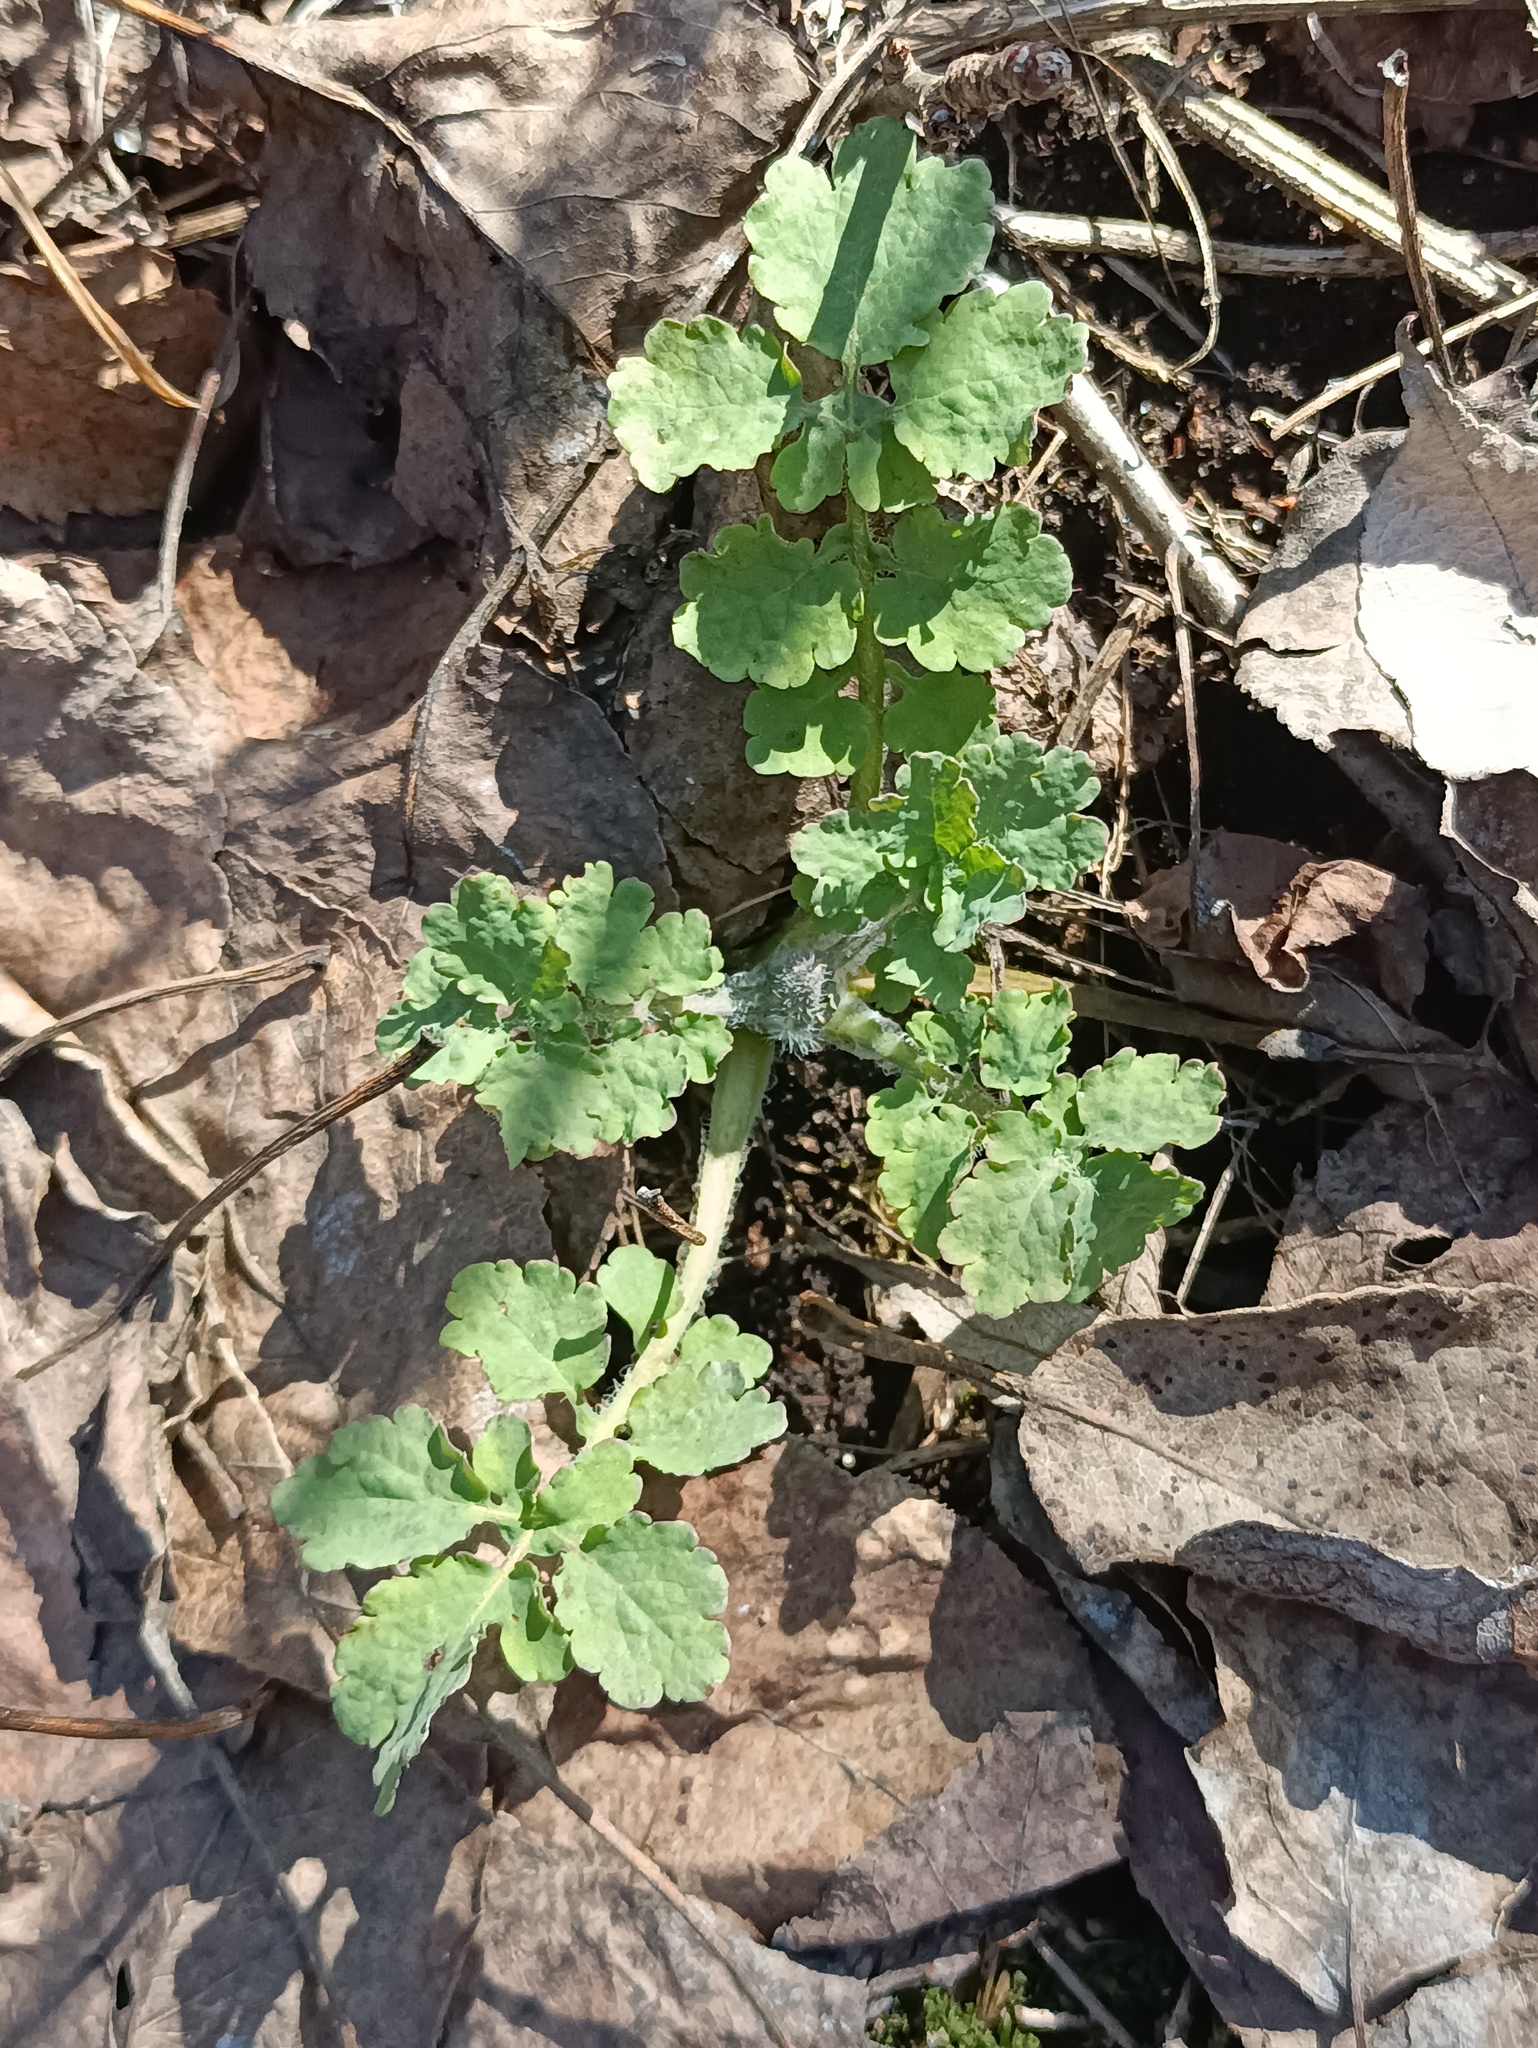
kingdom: Plantae
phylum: Tracheophyta
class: Magnoliopsida
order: Ranunculales
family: Papaveraceae
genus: Chelidonium
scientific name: Chelidonium majus
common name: Greater celandine
